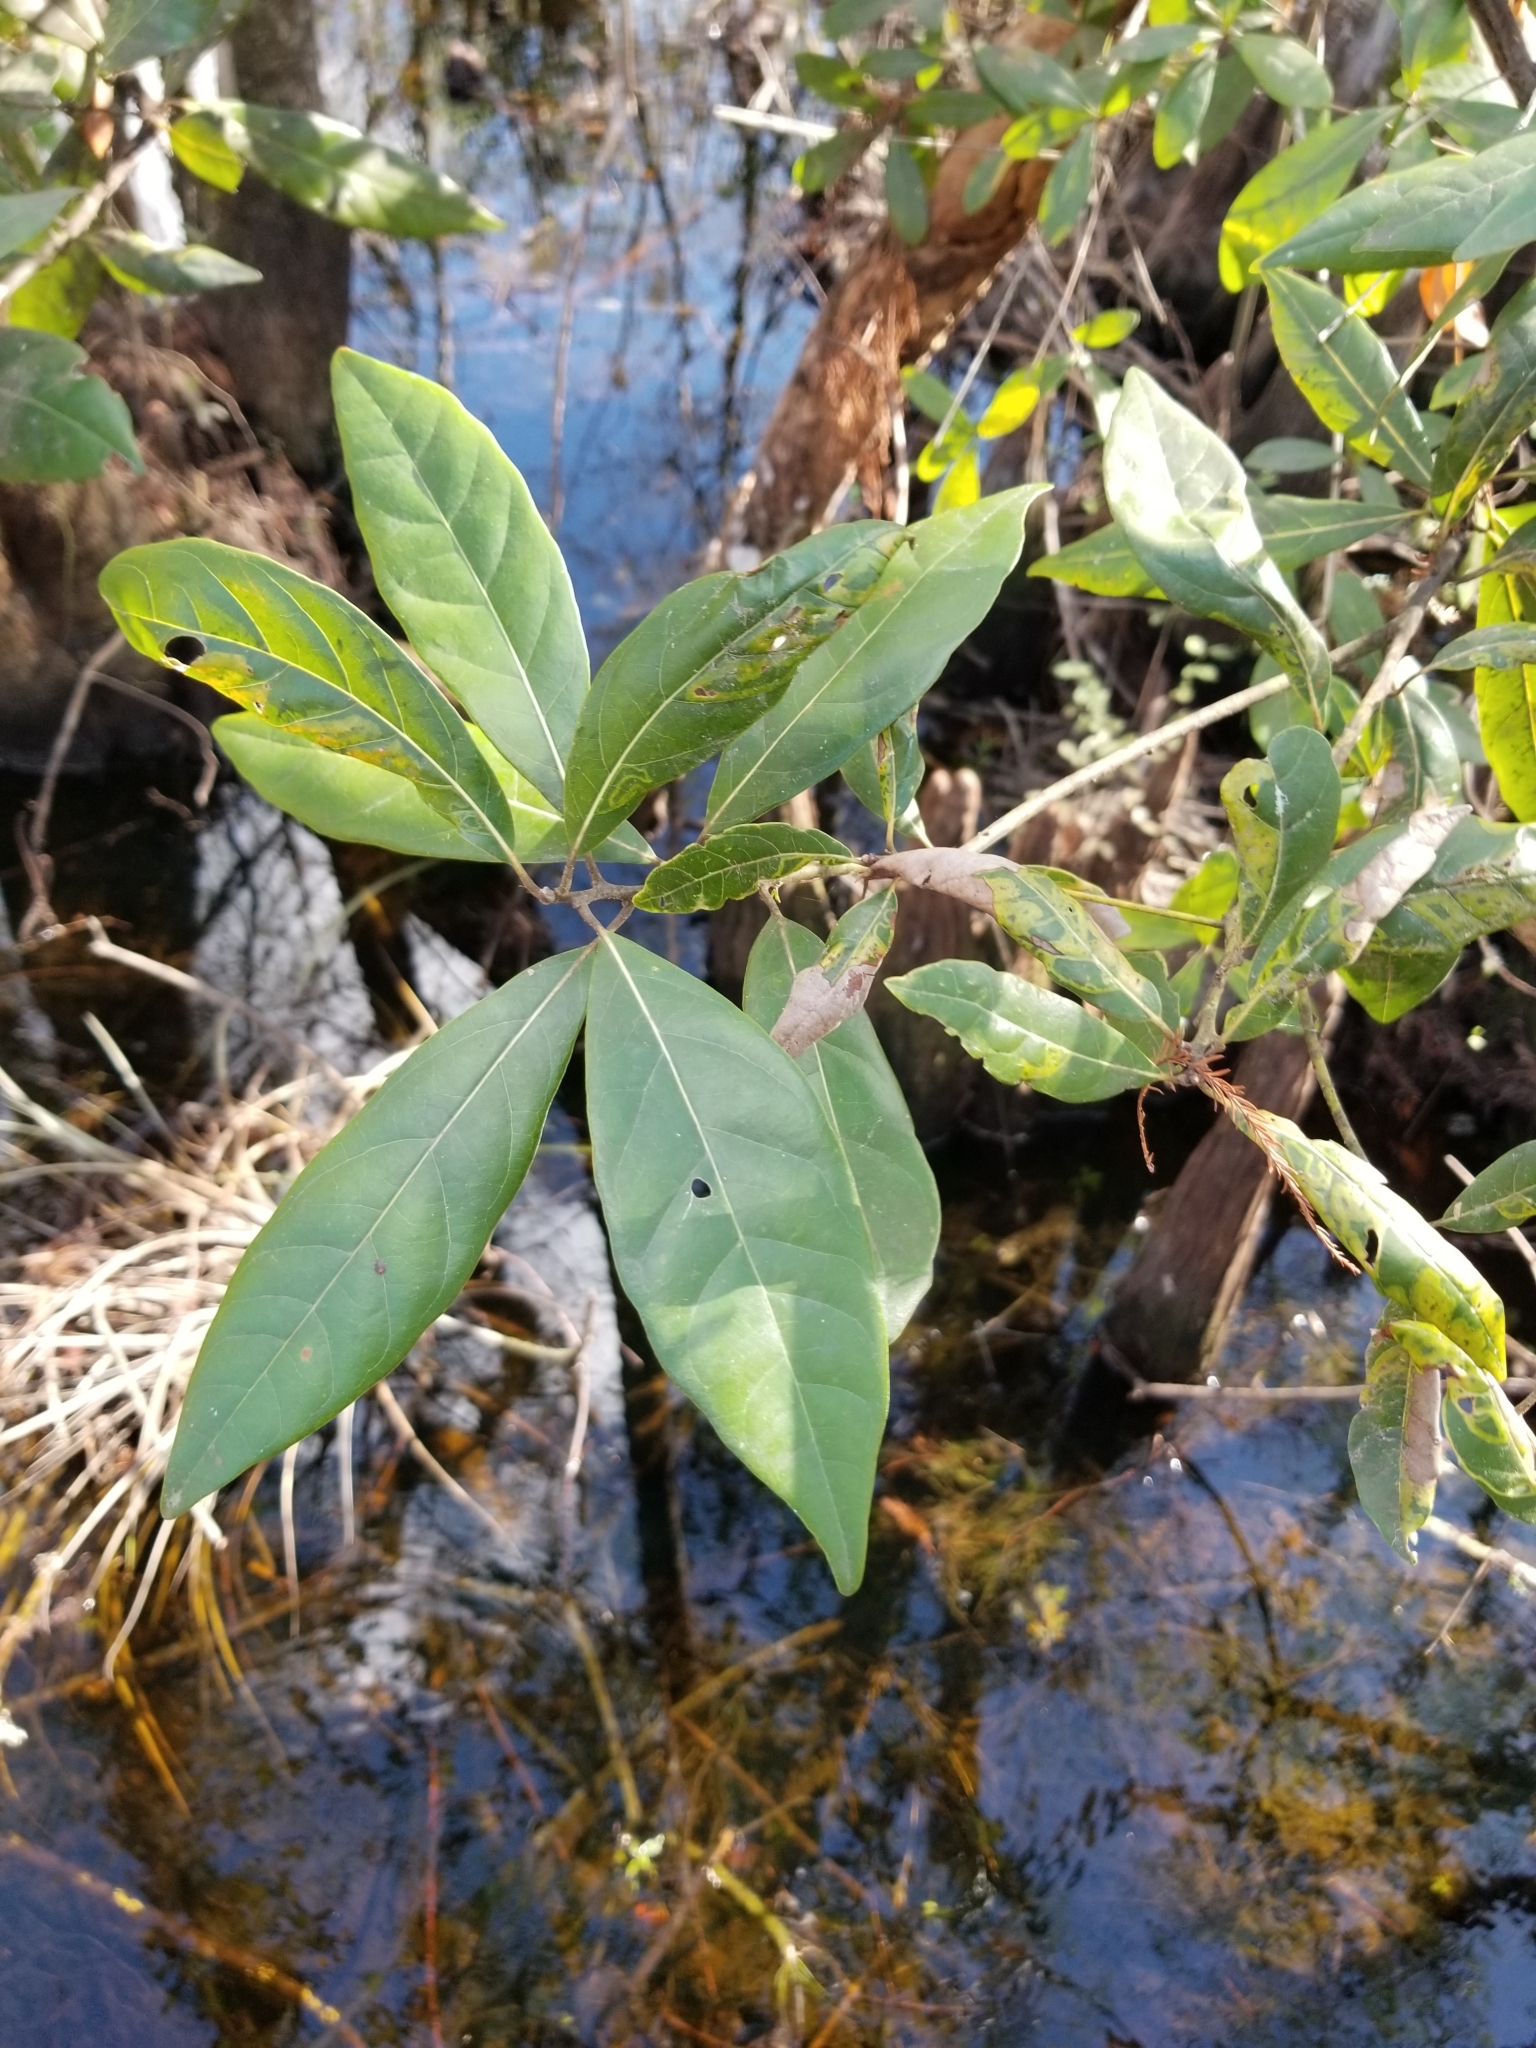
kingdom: Plantae
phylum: Tracheophyta
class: Magnoliopsida
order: Laurales
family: Lauraceae
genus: Persea
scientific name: Persea palustris
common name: Swampbay
